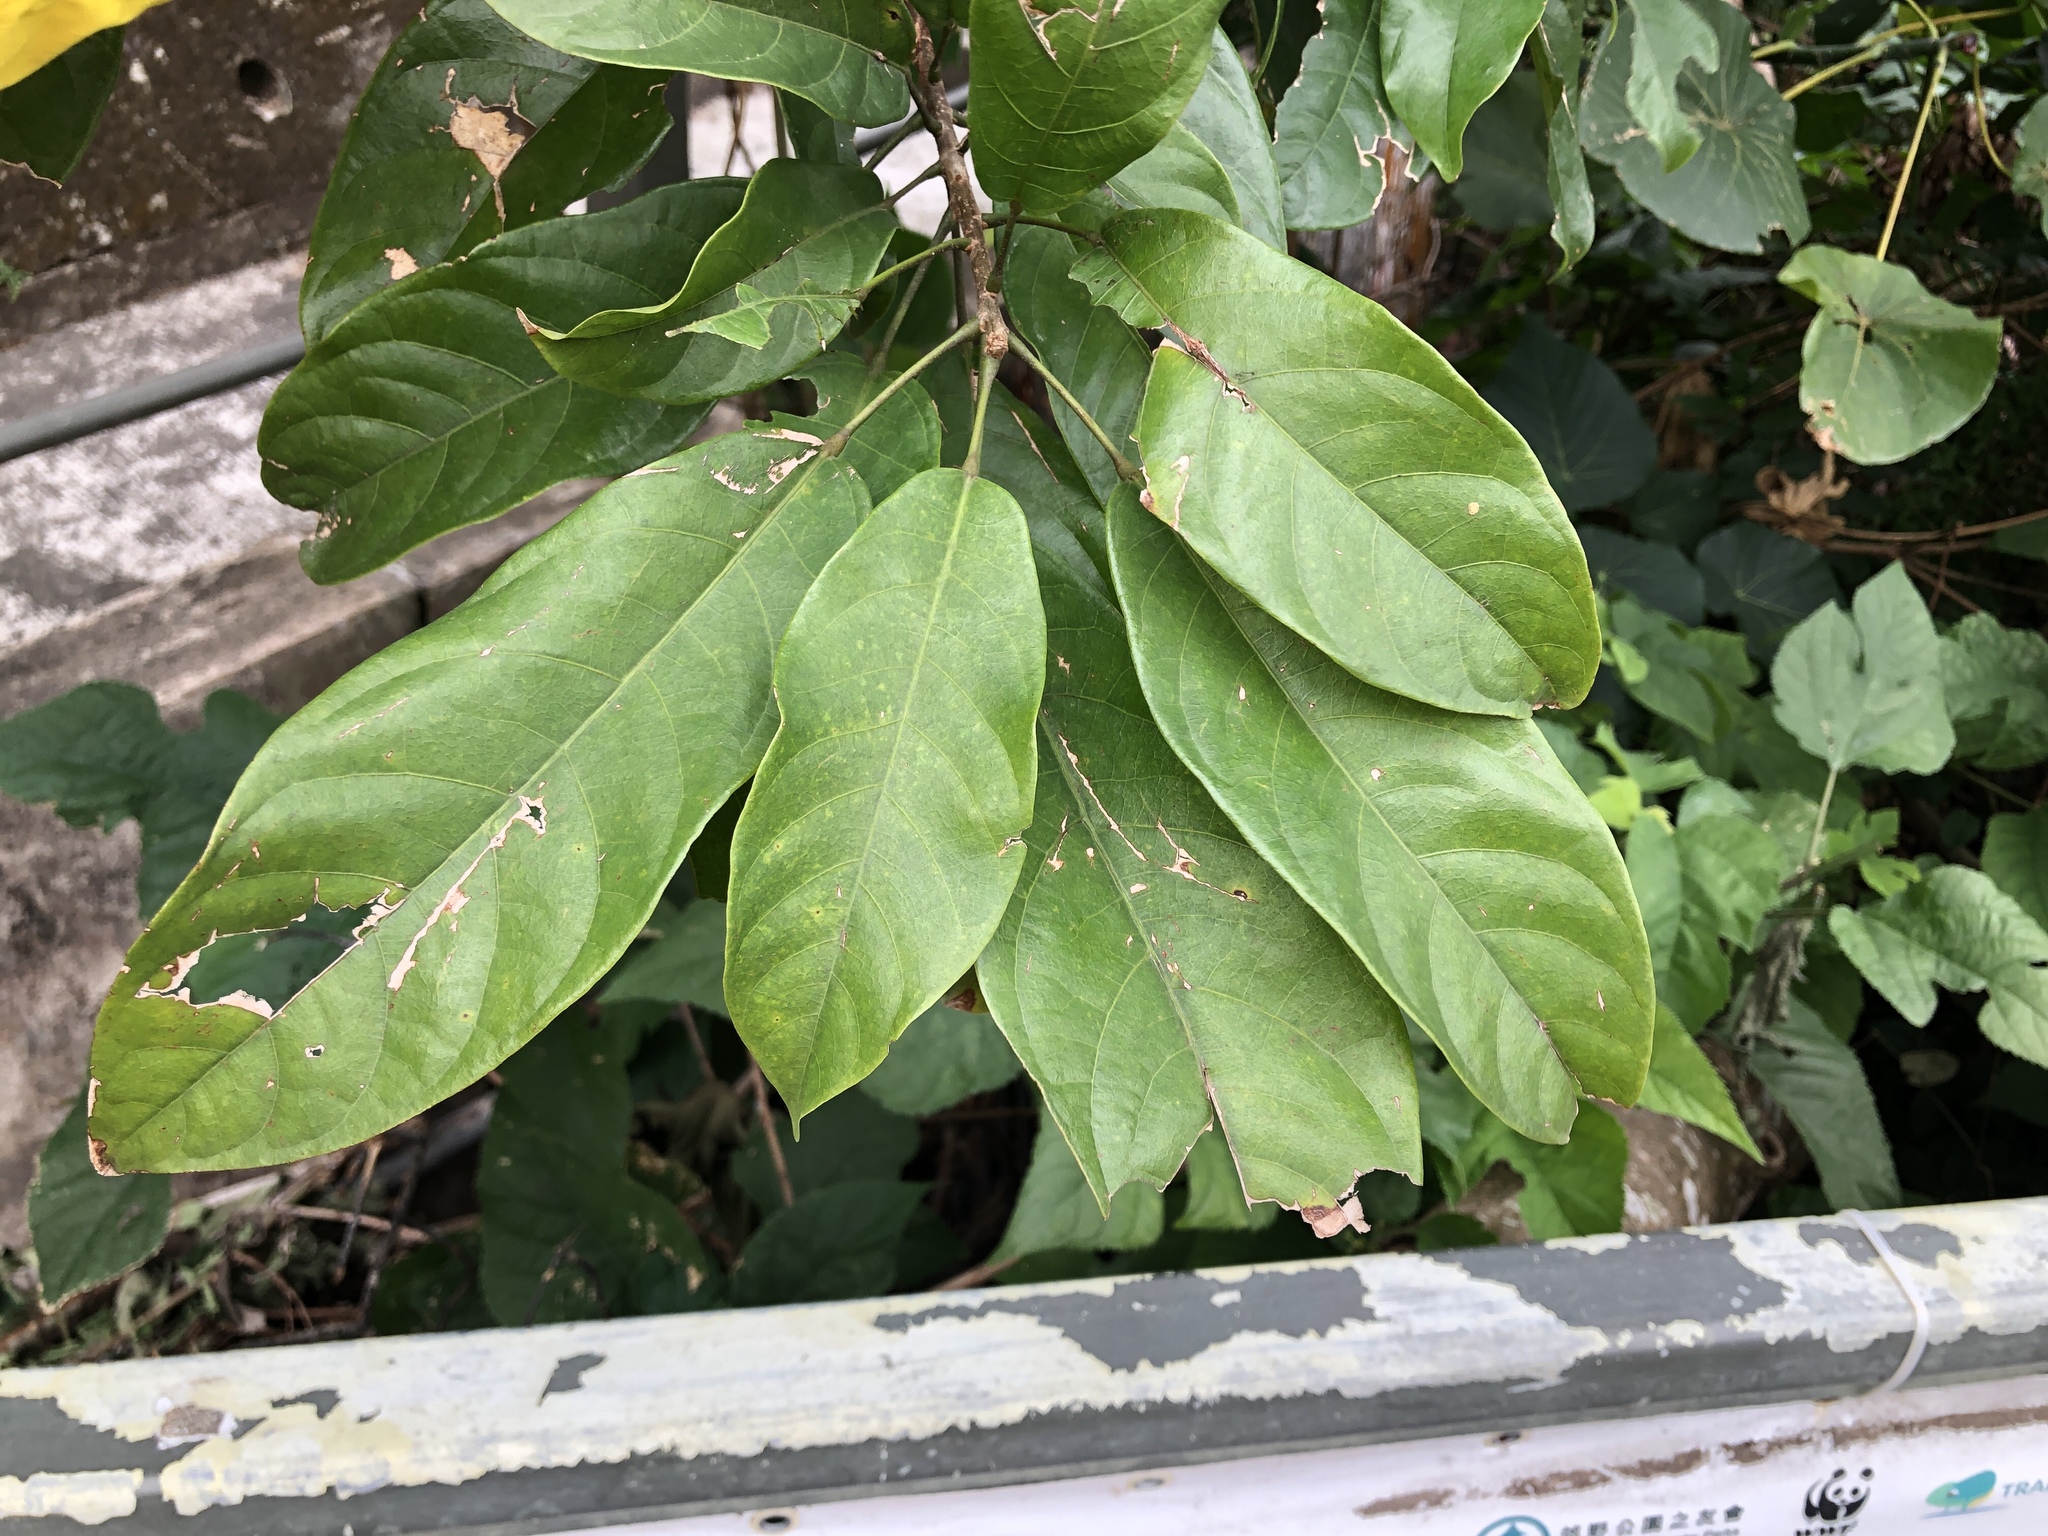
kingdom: Plantae
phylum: Tracheophyta
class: Magnoliopsida
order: Malvales
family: Malvaceae
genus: Sterculia
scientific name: Sterculia lanceolata
